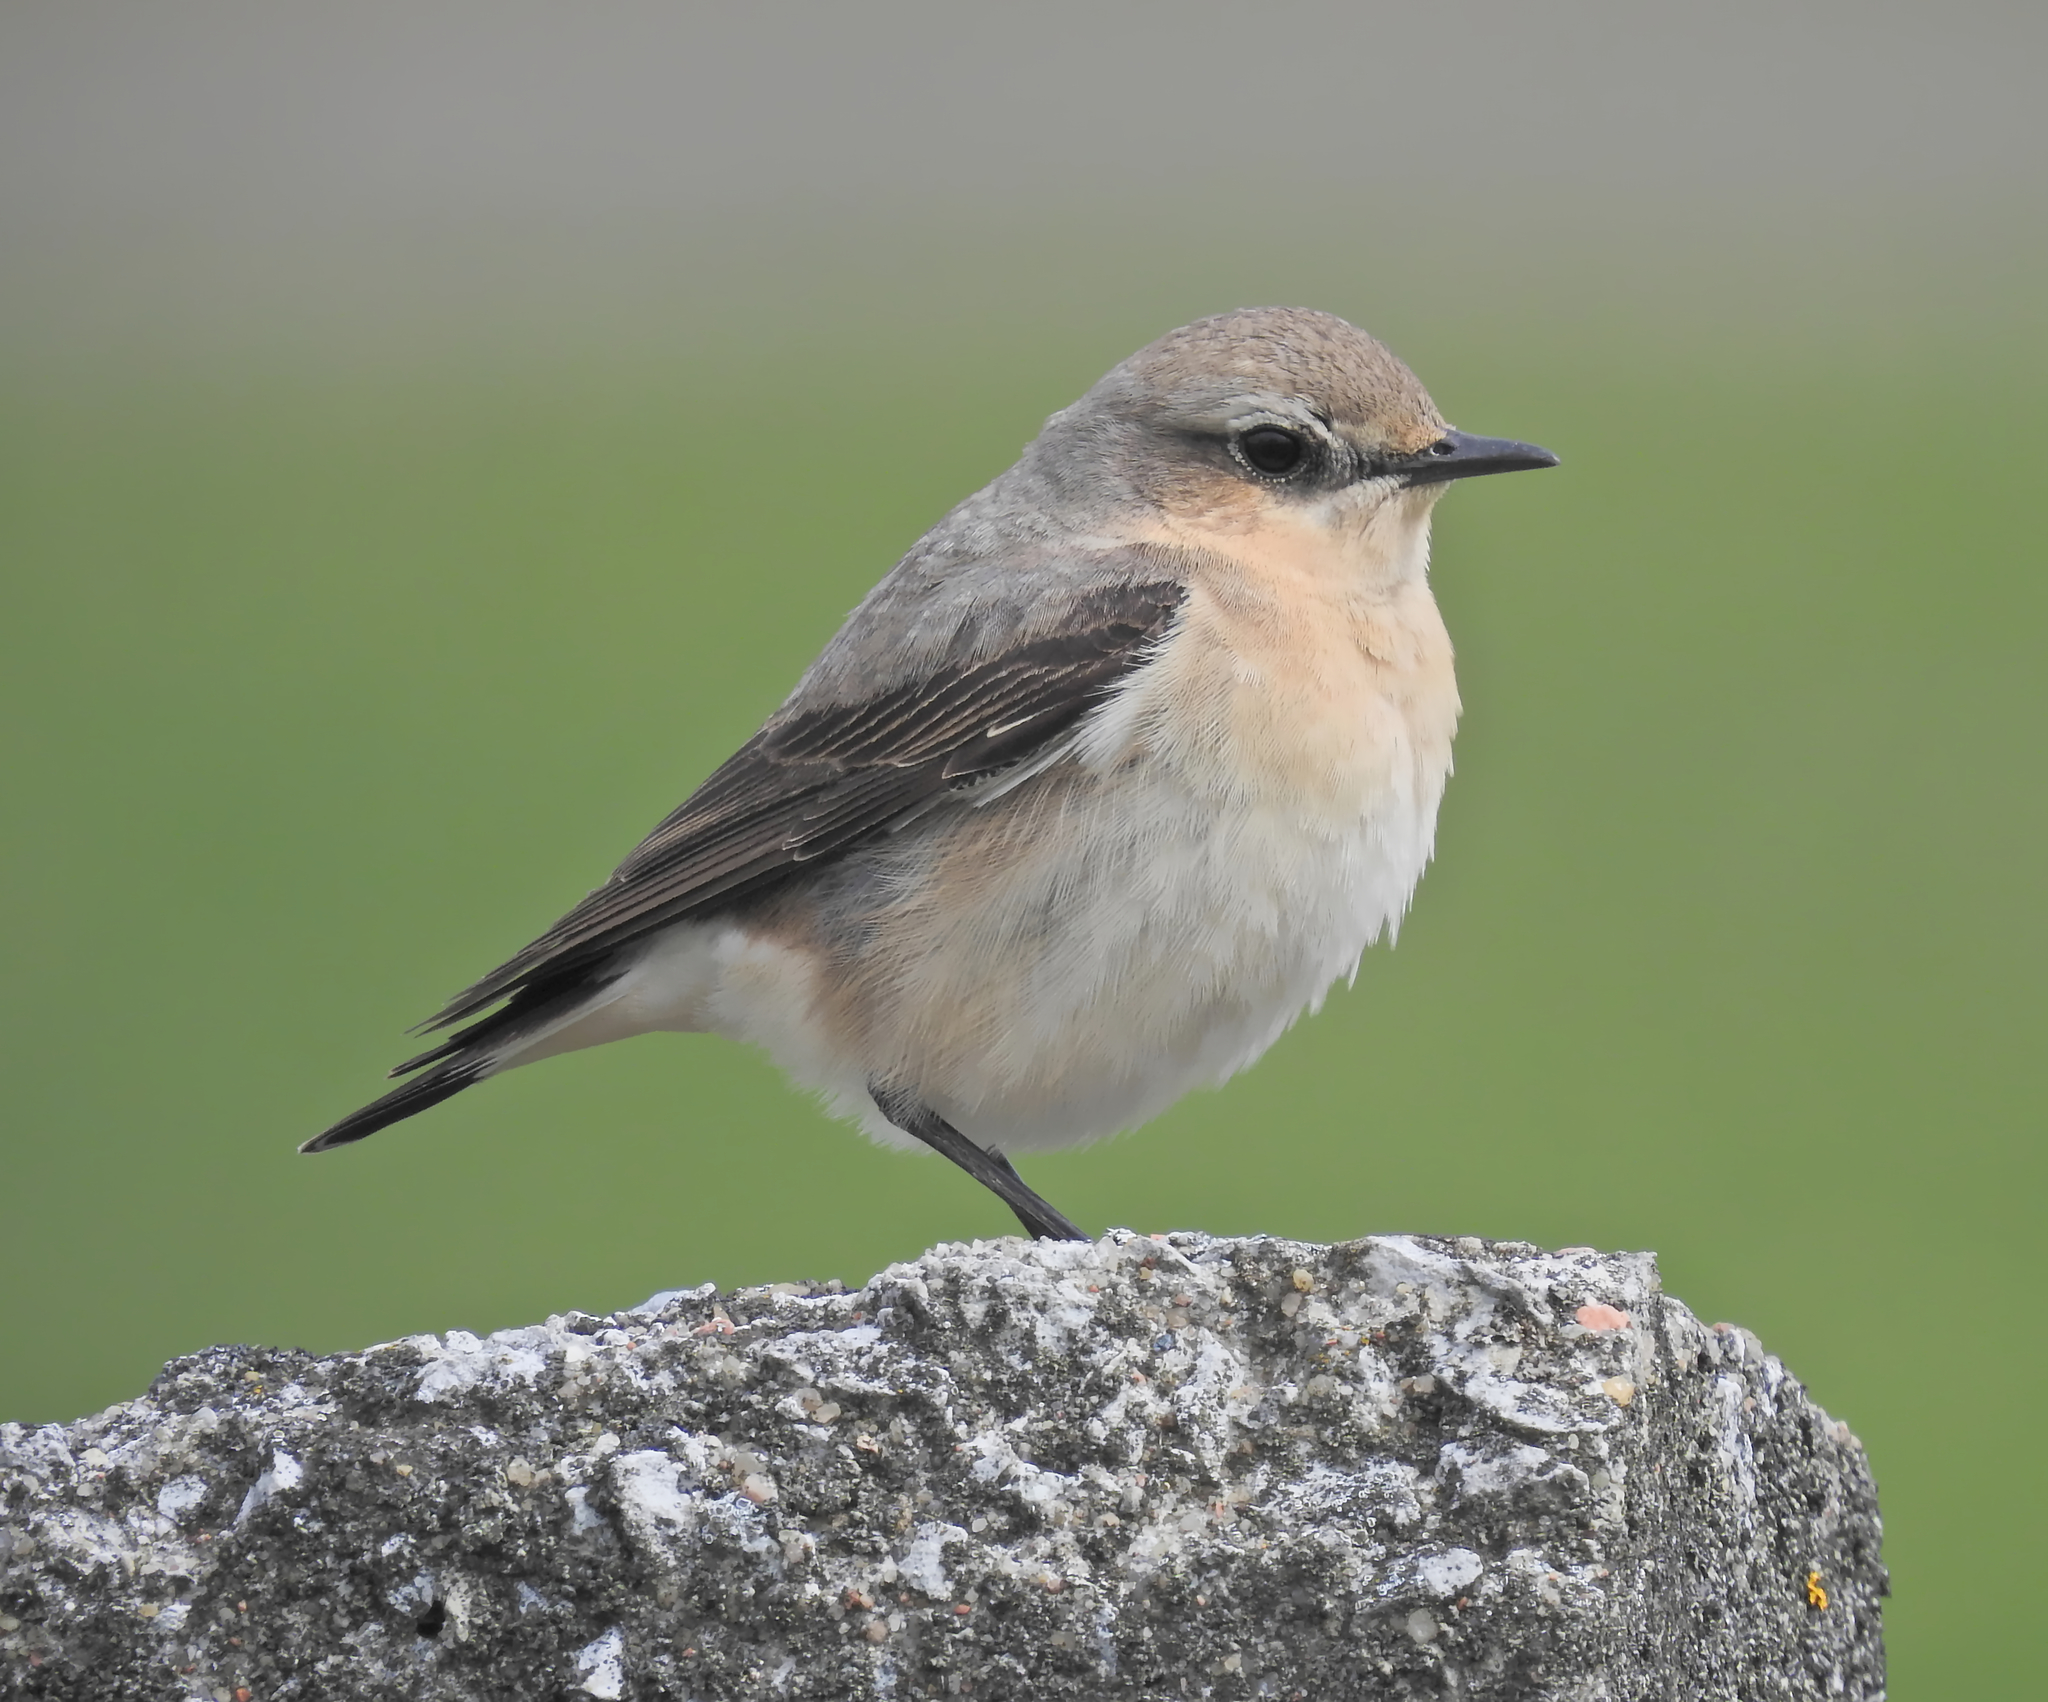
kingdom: Animalia
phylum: Chordata
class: Aves
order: Passeriformes
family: Muscicapidae
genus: Oenanthe
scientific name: Oenanthe oenanthe
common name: Northern wheatear
